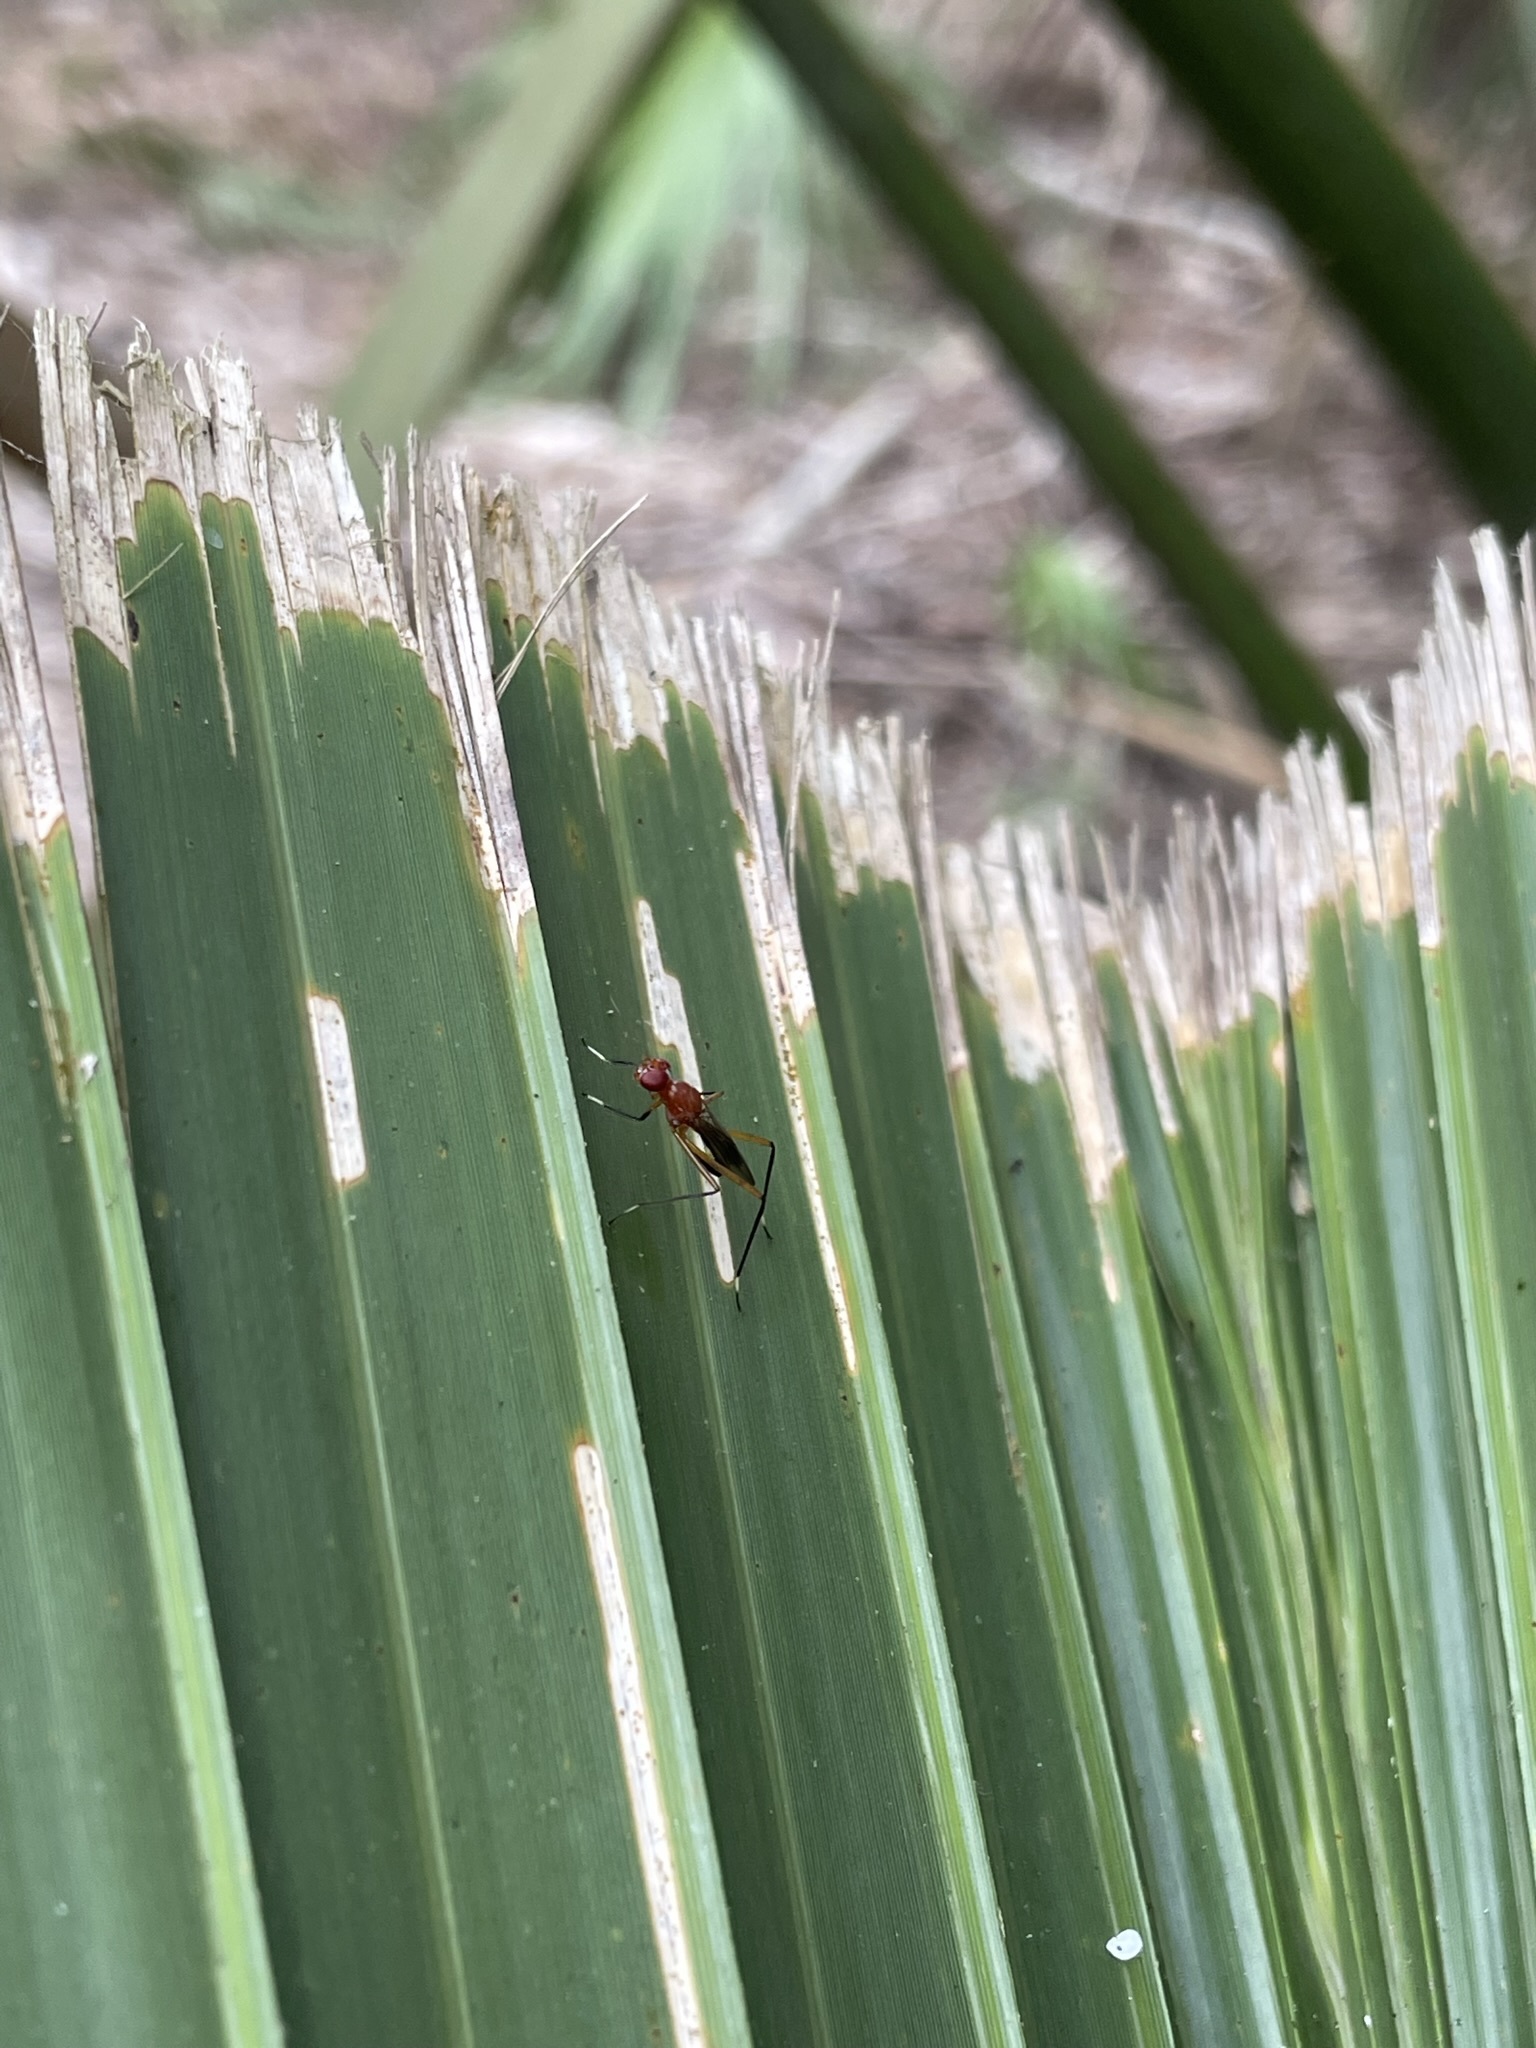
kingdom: Animalia
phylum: Arthropoda
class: Insecta
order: Diptera
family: Micropezidae
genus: Grallipeza
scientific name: Grallipeza nebulosa
